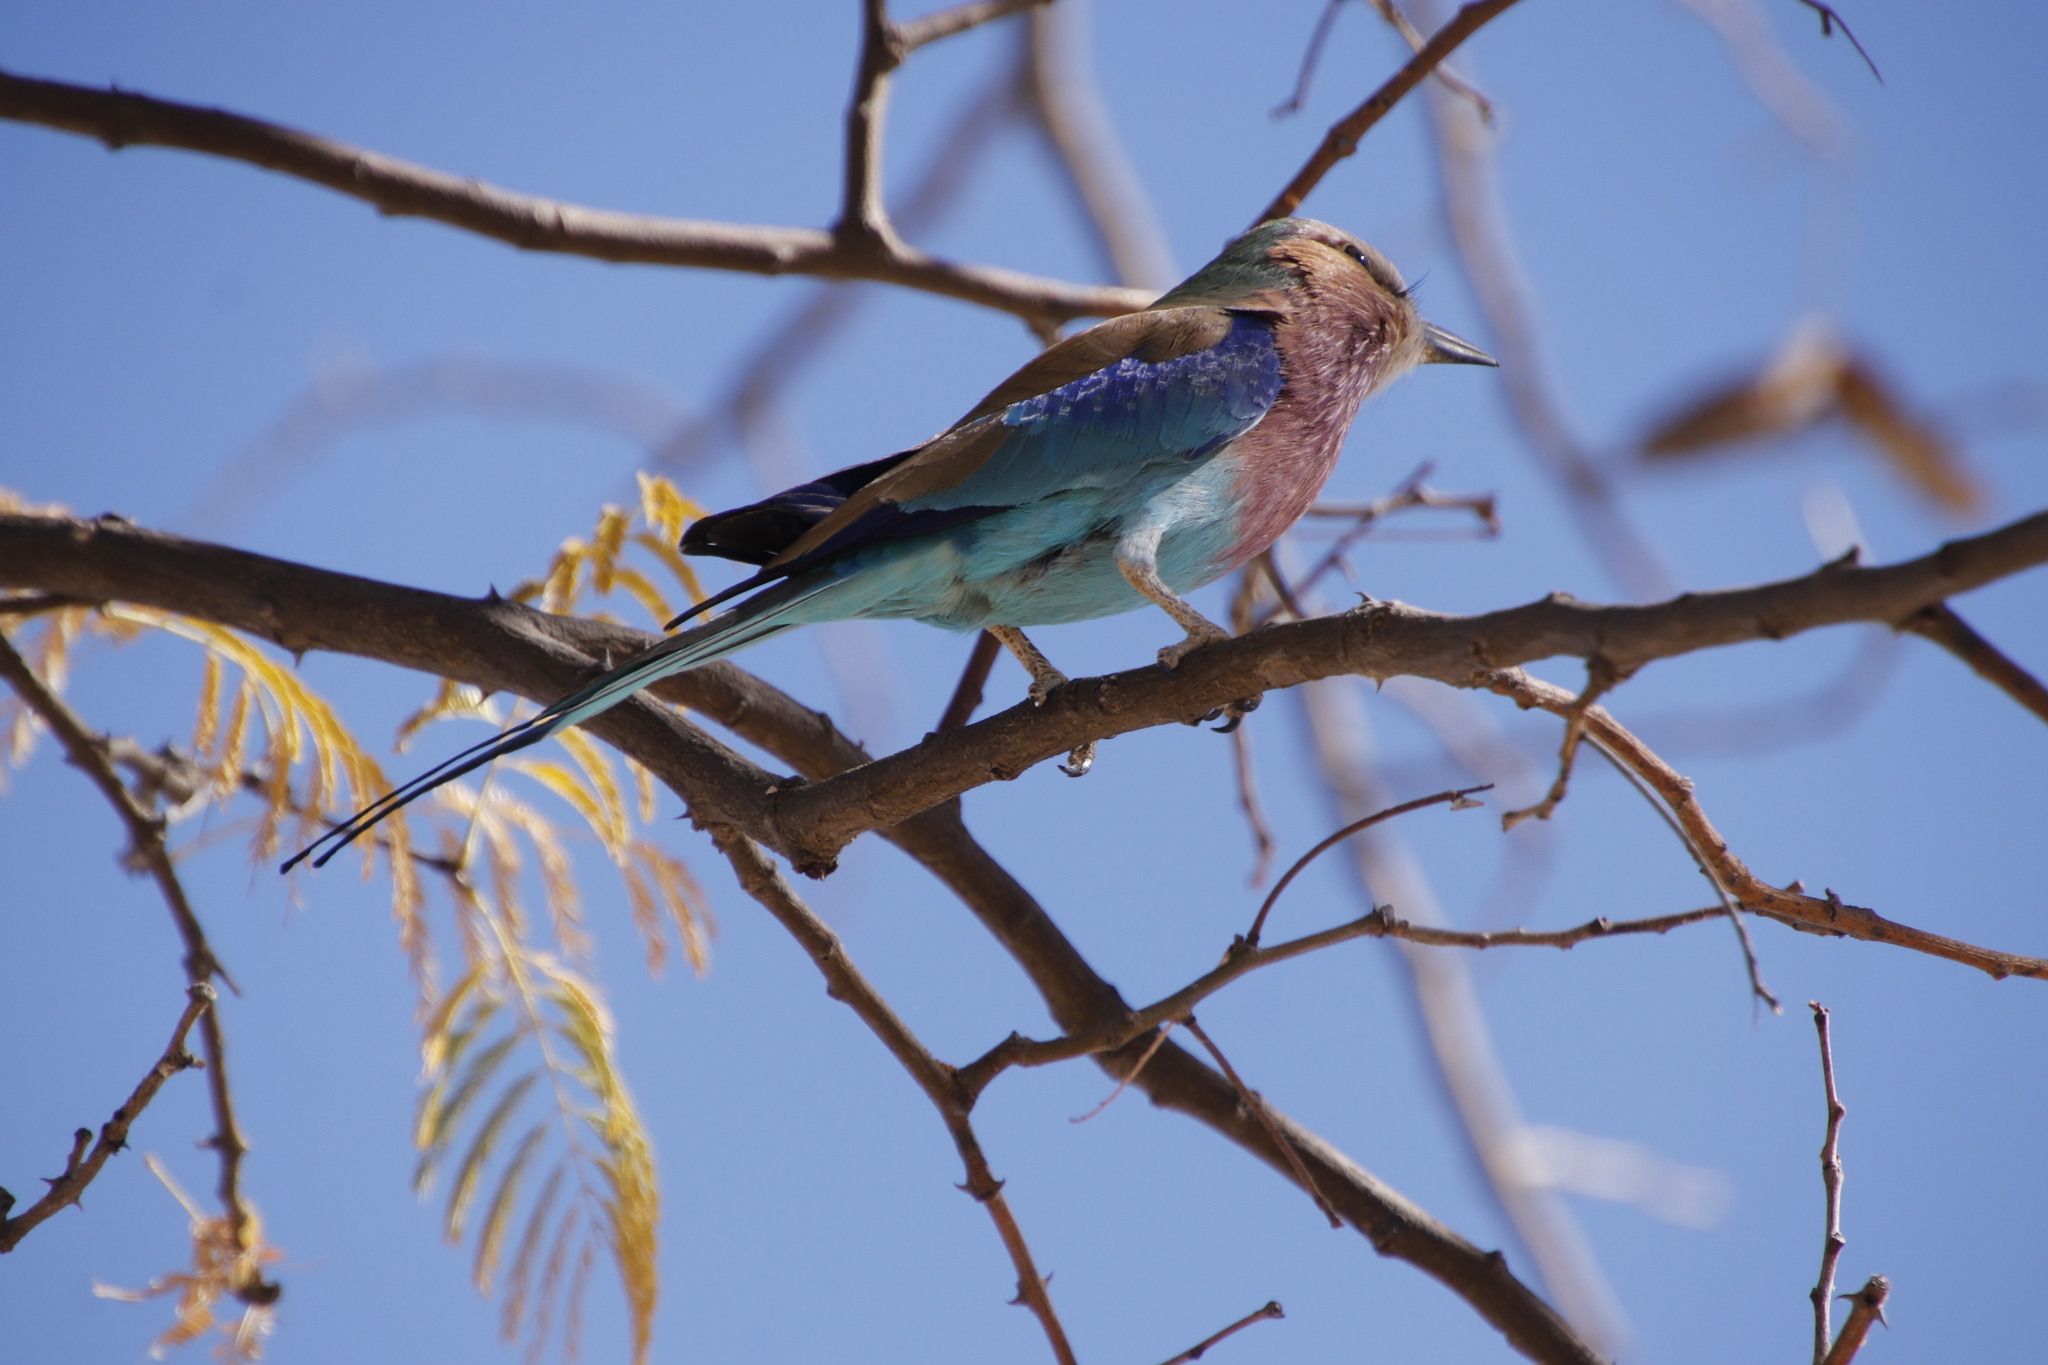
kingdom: Animalia
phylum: Chordata
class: Aves
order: Coraciiformes
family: Coraciidae
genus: Coracias
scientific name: Coracias caudatus
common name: Lilac-breasted roller
